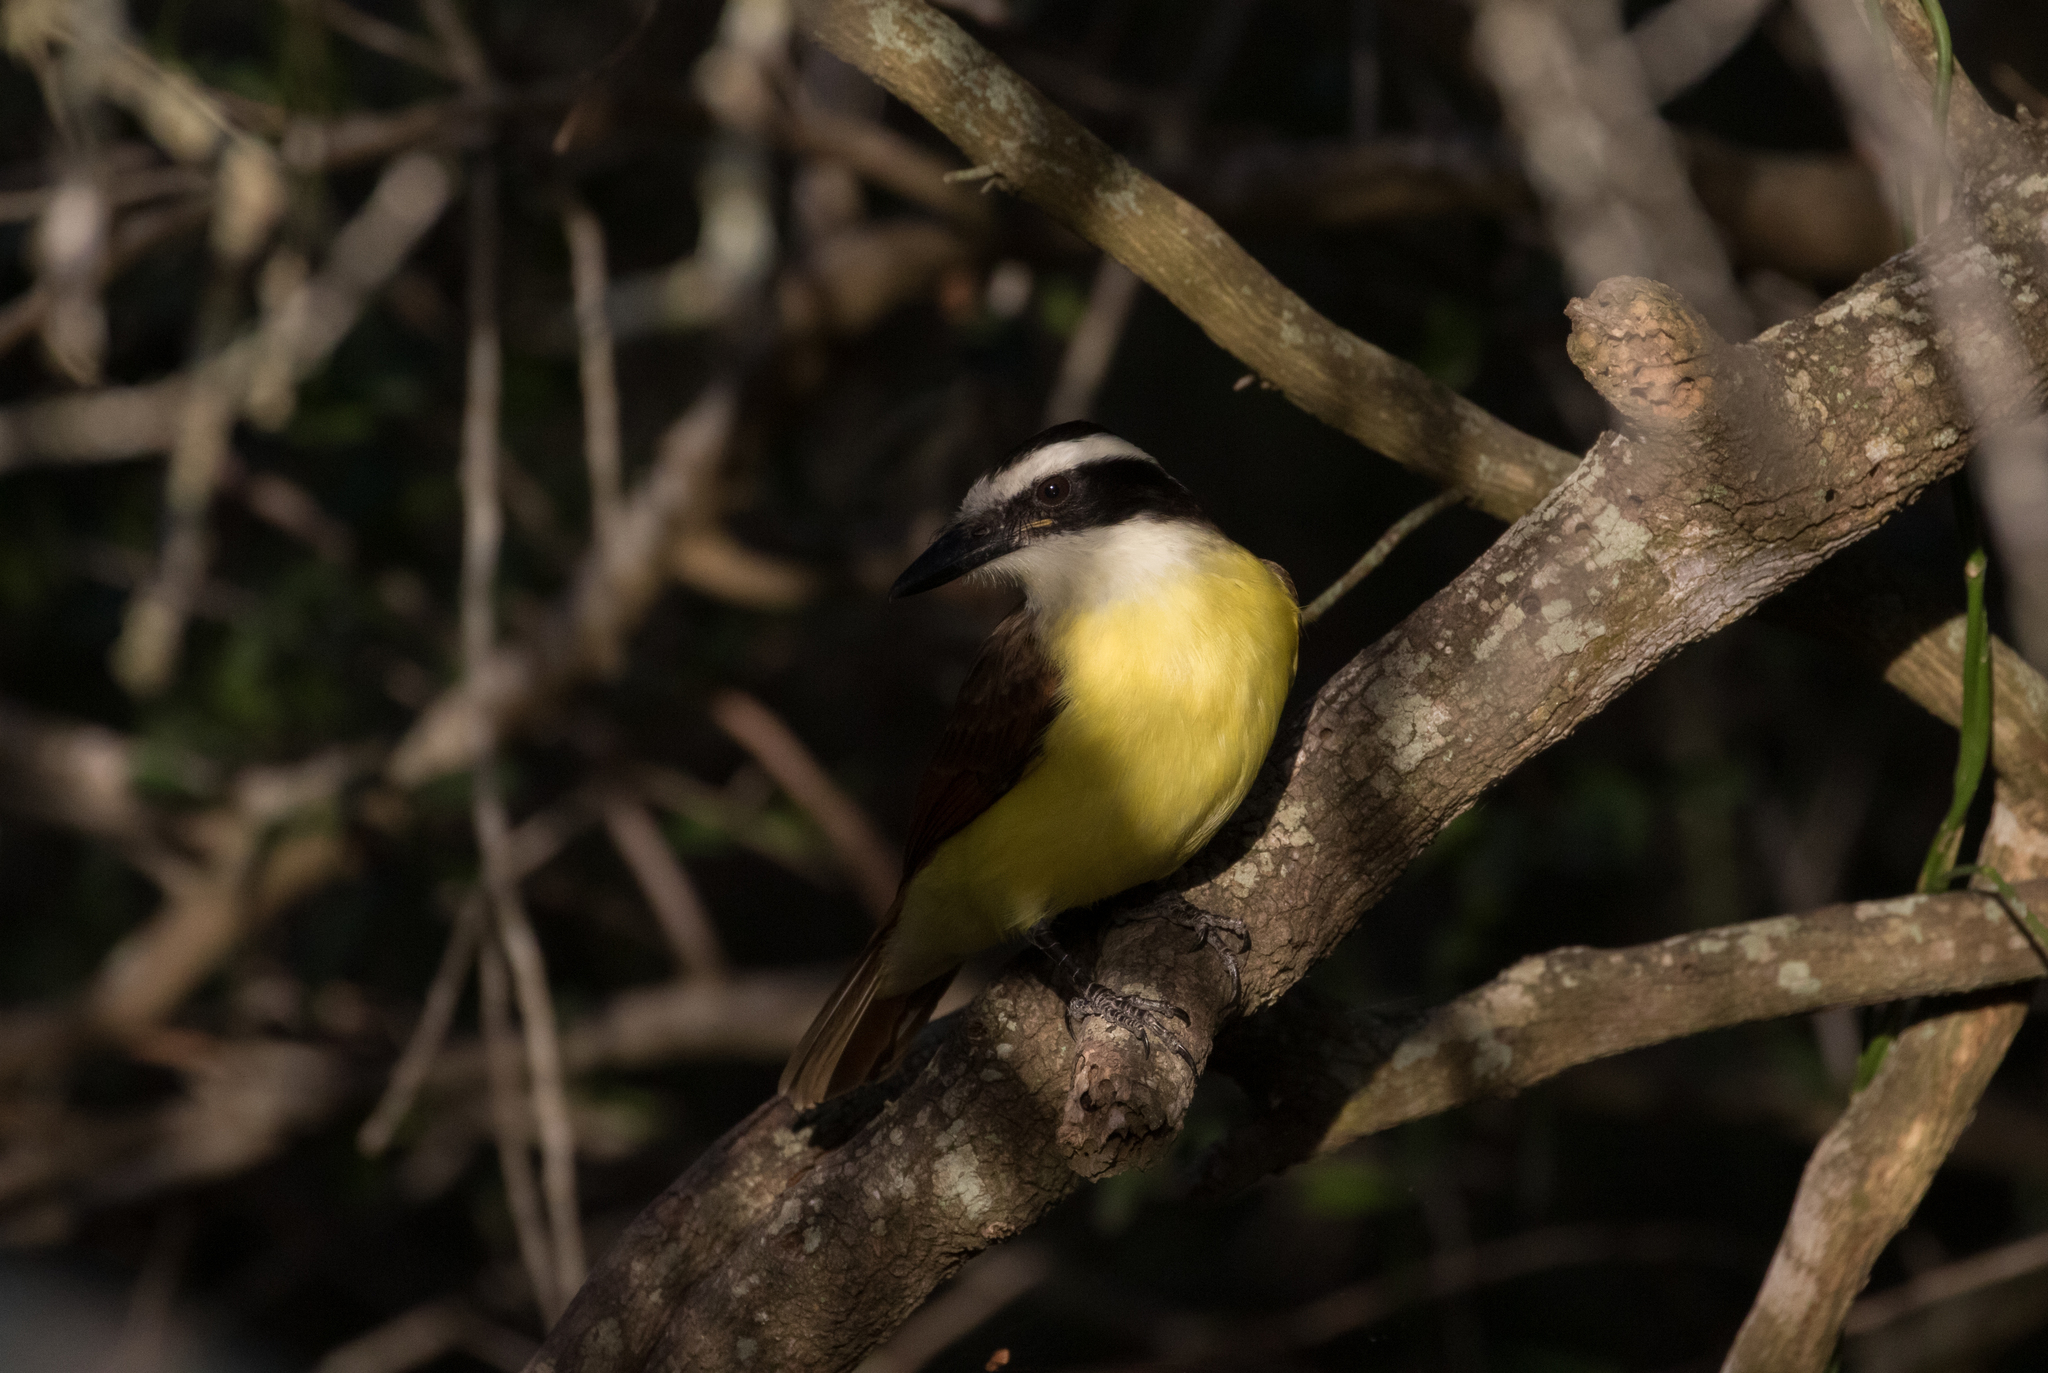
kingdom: Animalia
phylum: Chordata
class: Aves
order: Passeriformes
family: Tyrannidae
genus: Pitangus
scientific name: Pitangus sulphuratus
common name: Great kiskadee
